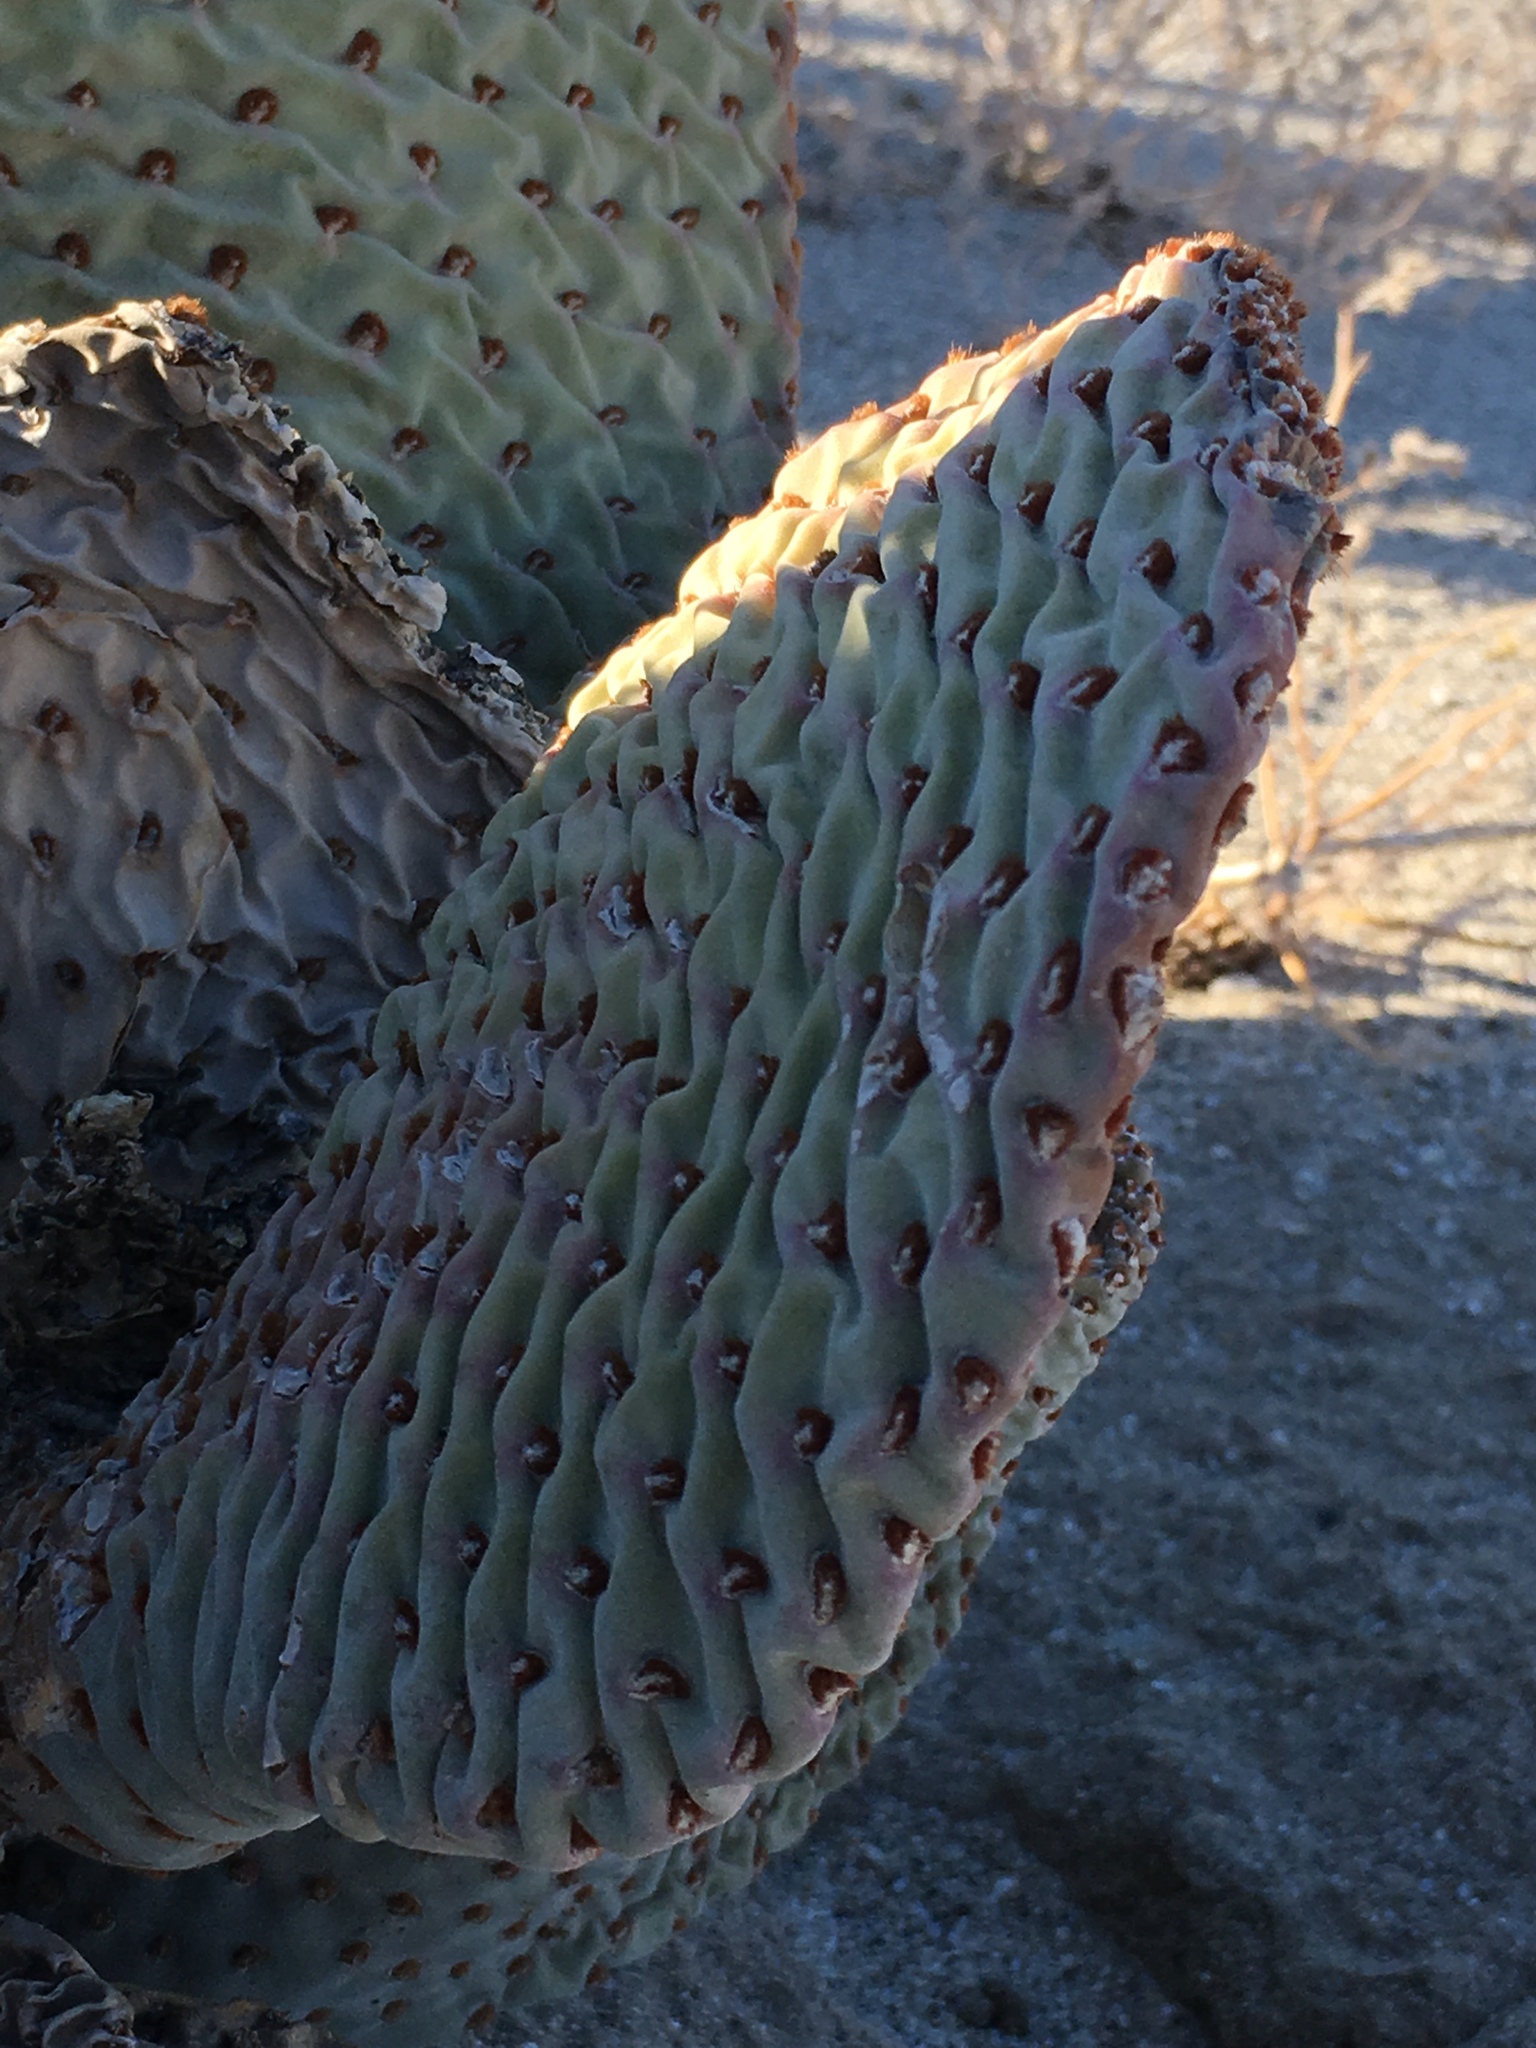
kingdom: Plantae
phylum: Tracheophyta
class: Magnoliopsida
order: Caryophyllales
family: Cactaceae
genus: Opuntia
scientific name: Opuntia basilaris
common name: Beavertail prickly-pear
